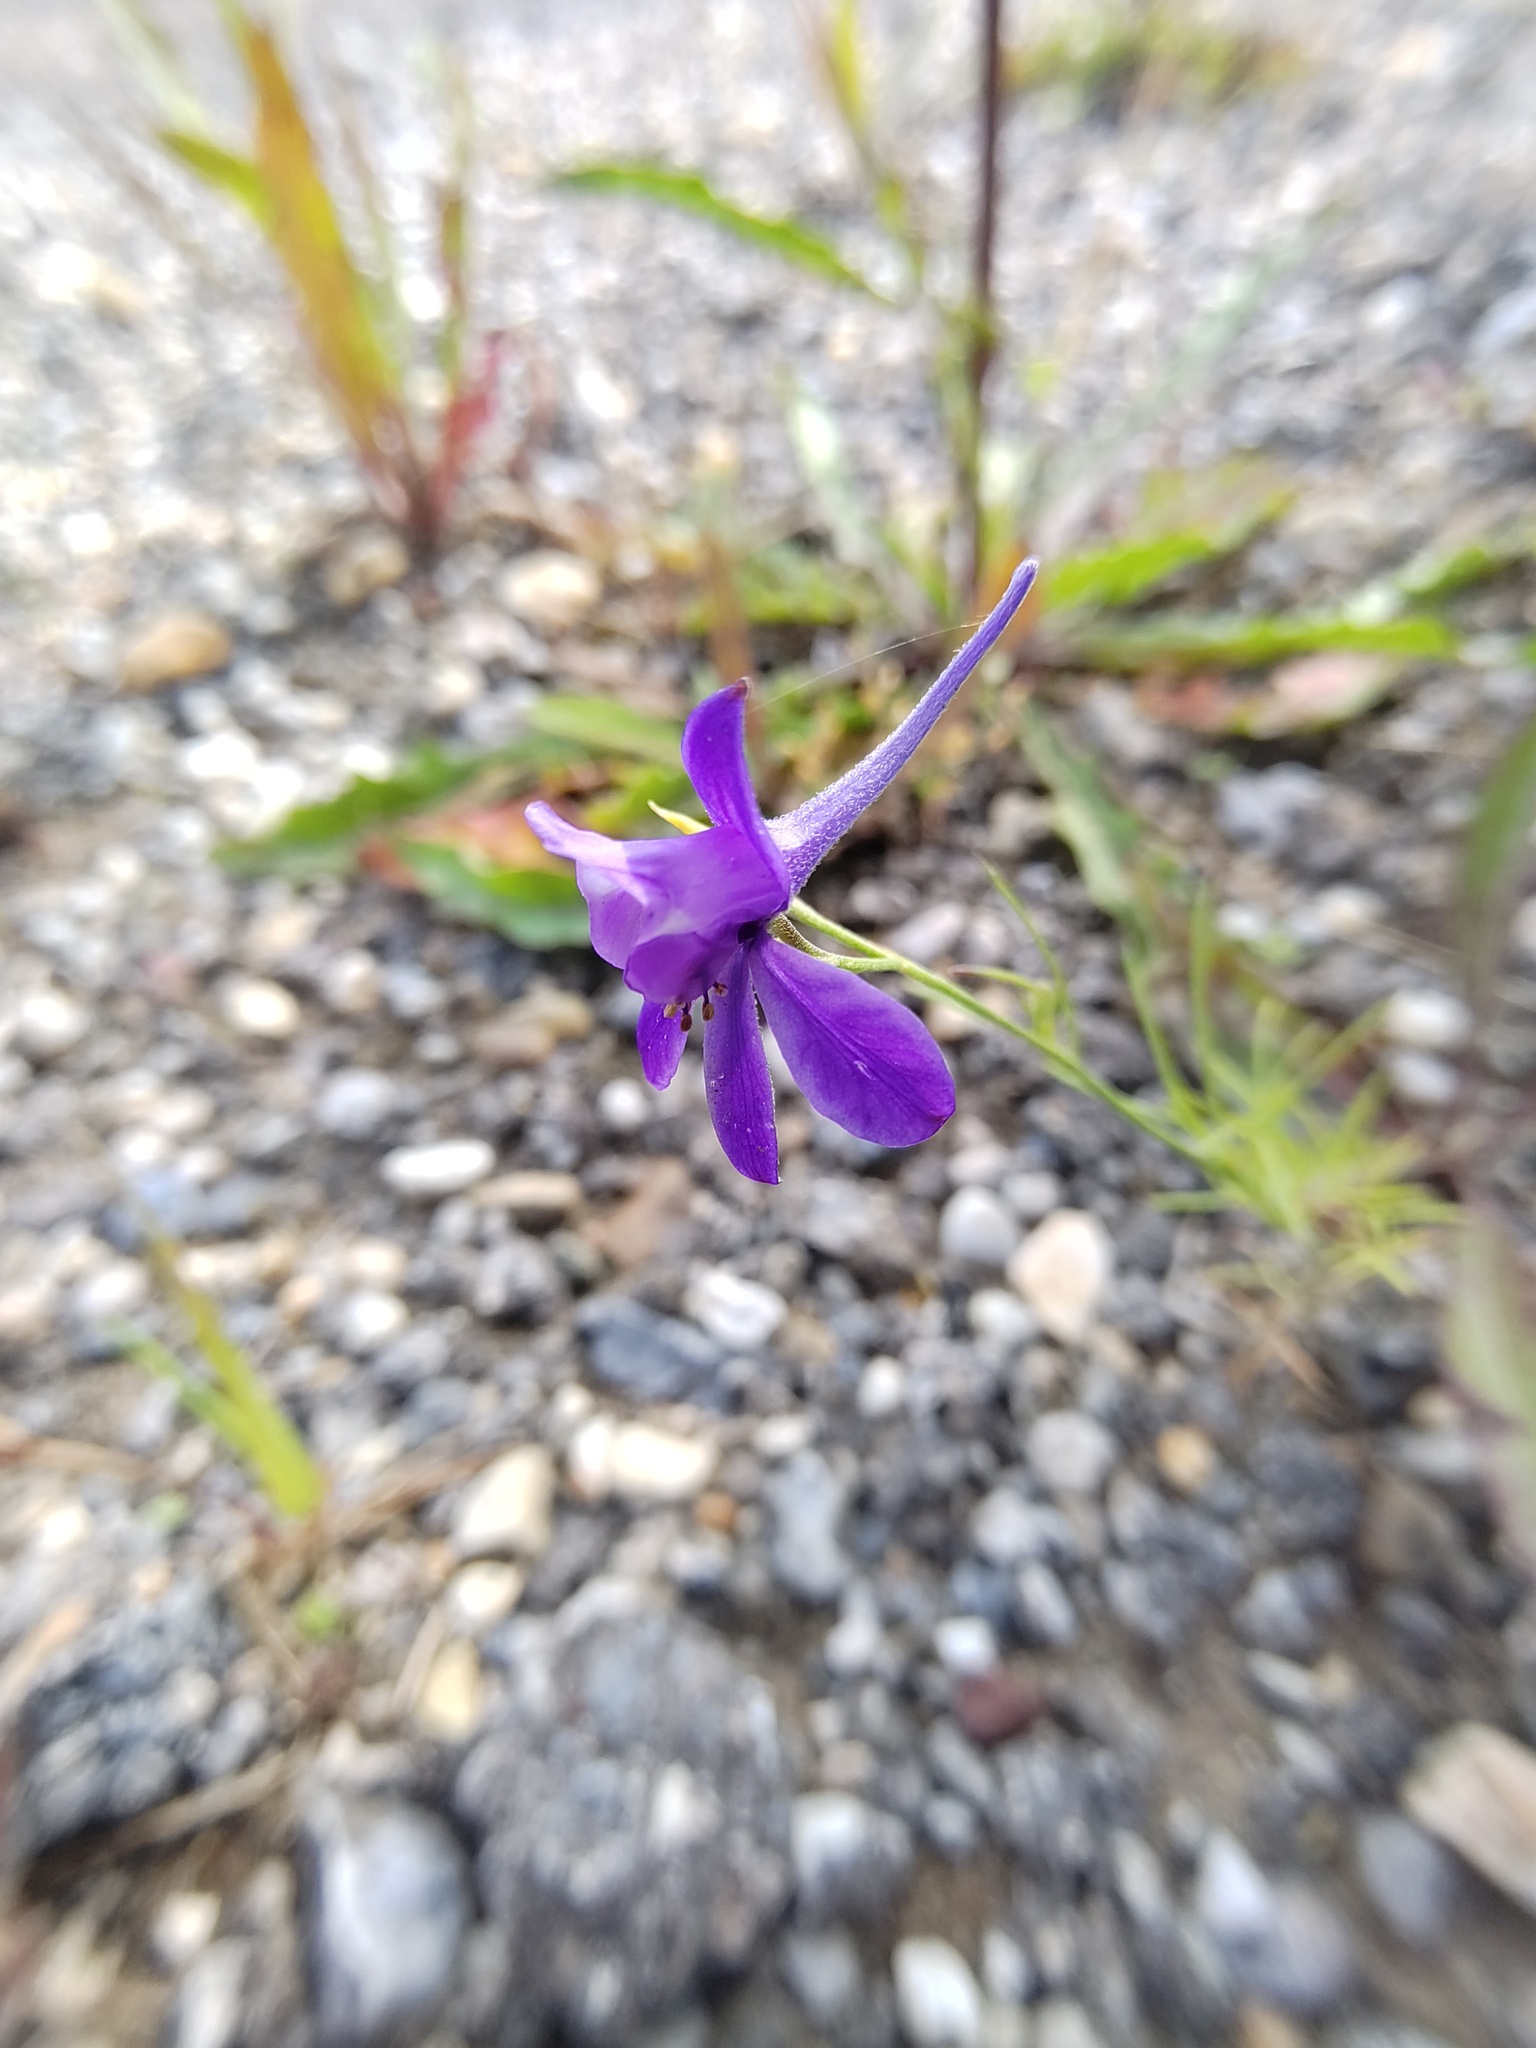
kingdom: Plantae
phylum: Tracheophyta
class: Magnoliopsida
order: Ranunculales
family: Ranunculaceae
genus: Delphinium
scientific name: Delphinium consolida
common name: Branching larkspur
